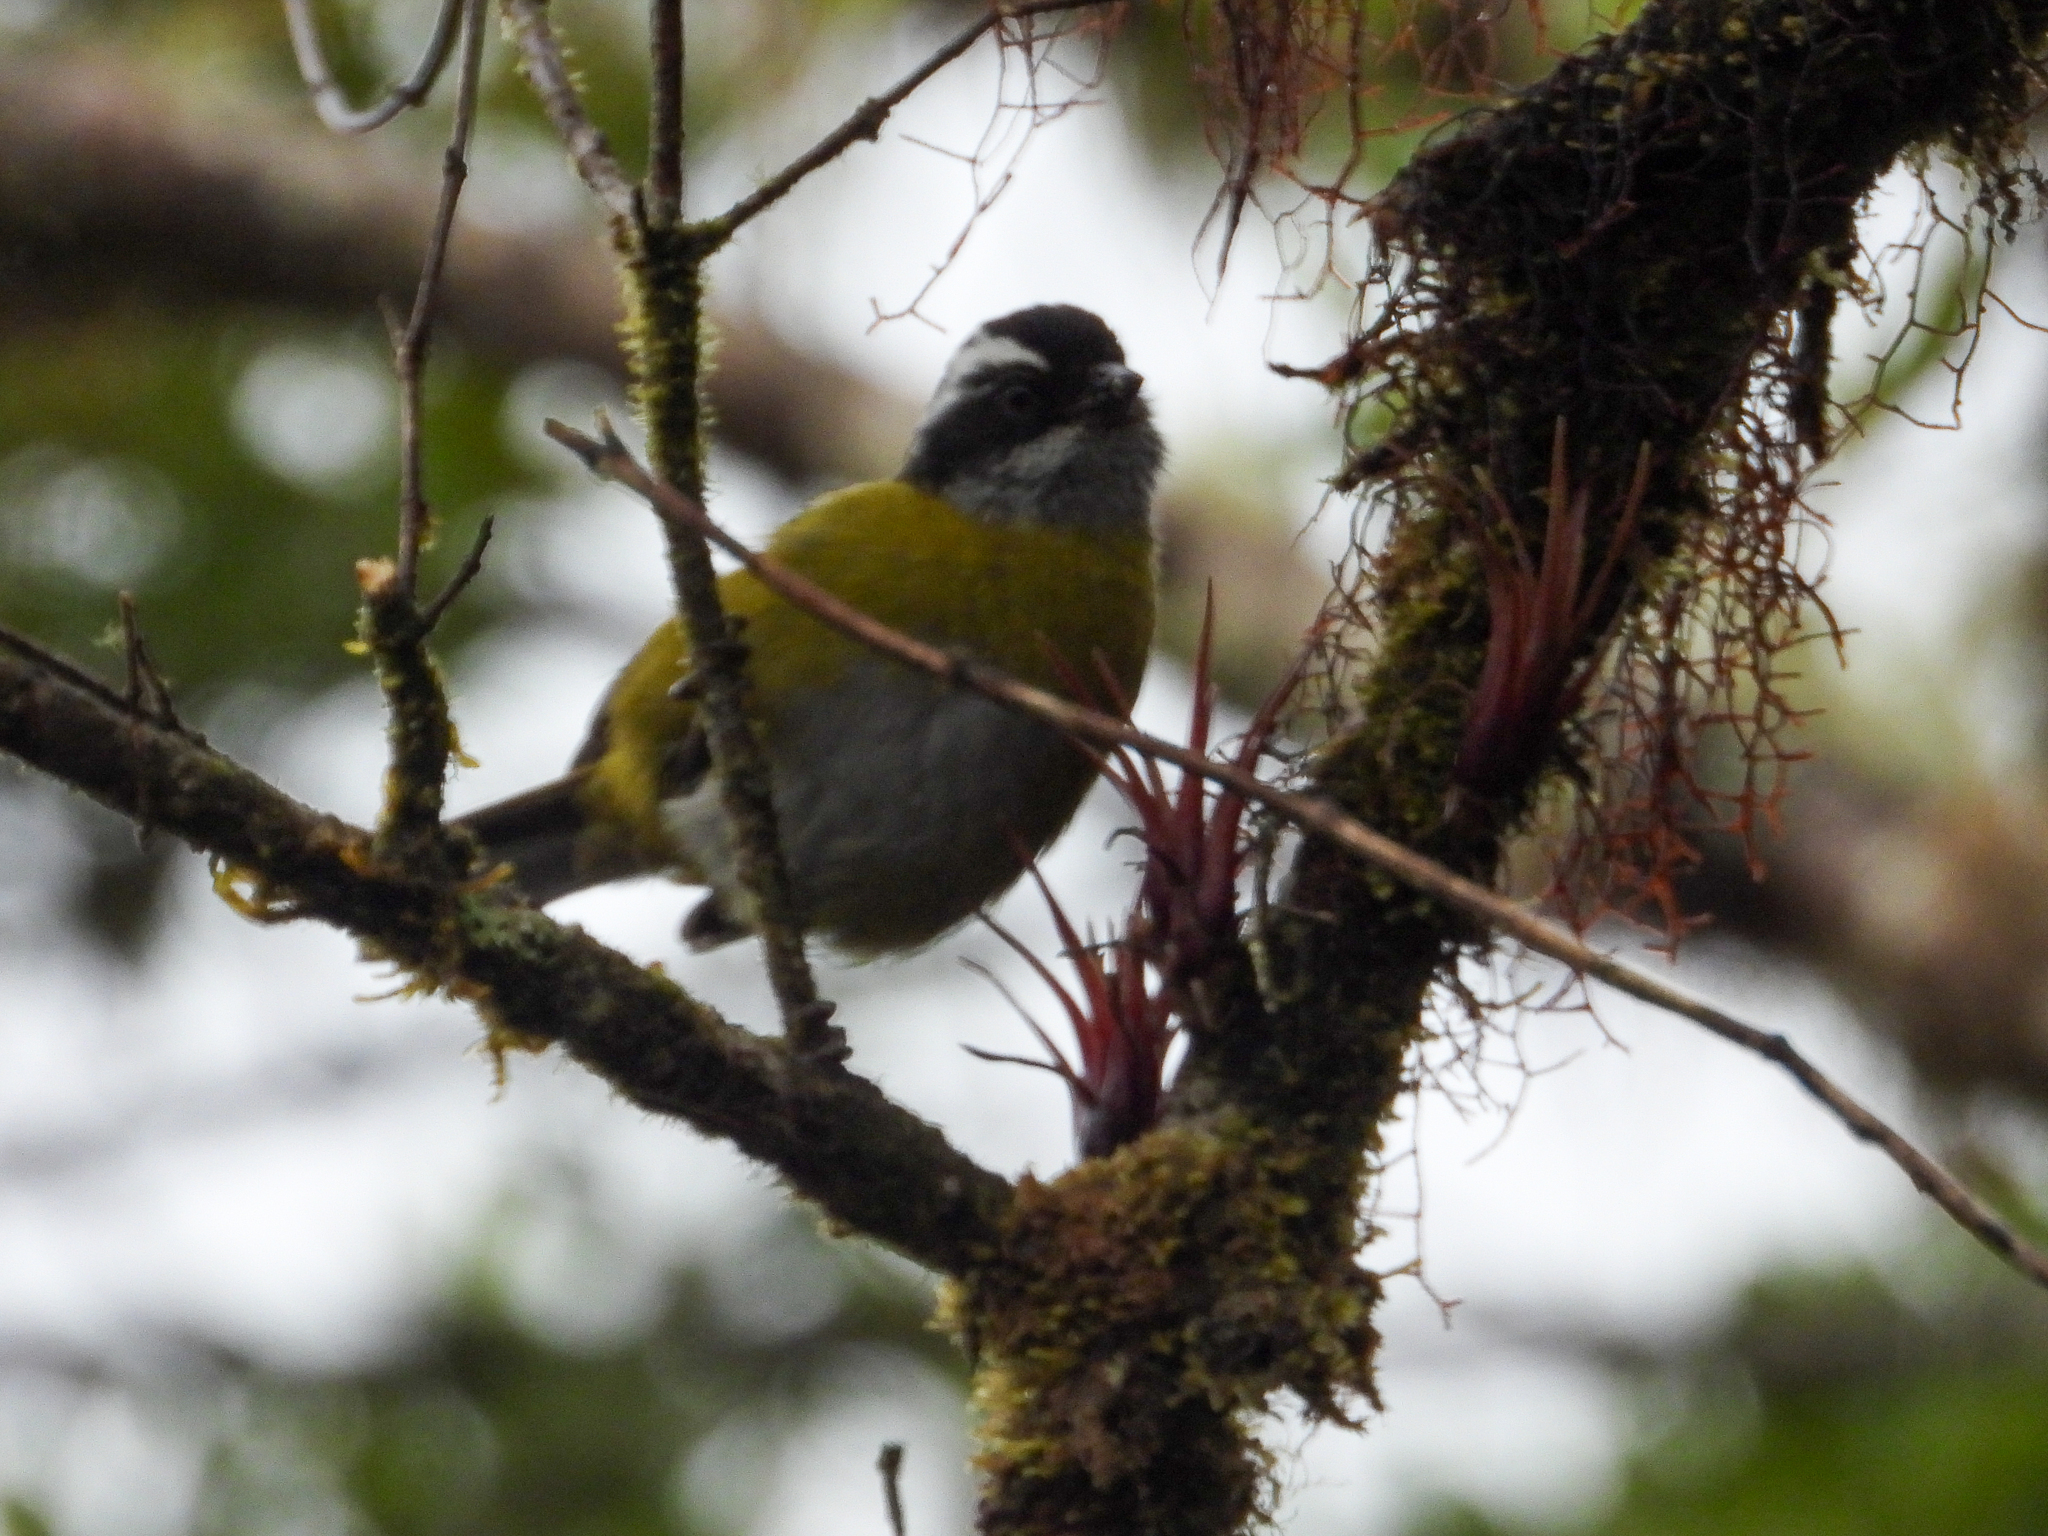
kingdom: Animalia
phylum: Chordata
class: Aves
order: Passeriformes
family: Passerellidae
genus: Chlorospingus
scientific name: Chlorospingus pileatus
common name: Sooty-capped bush-tanager
